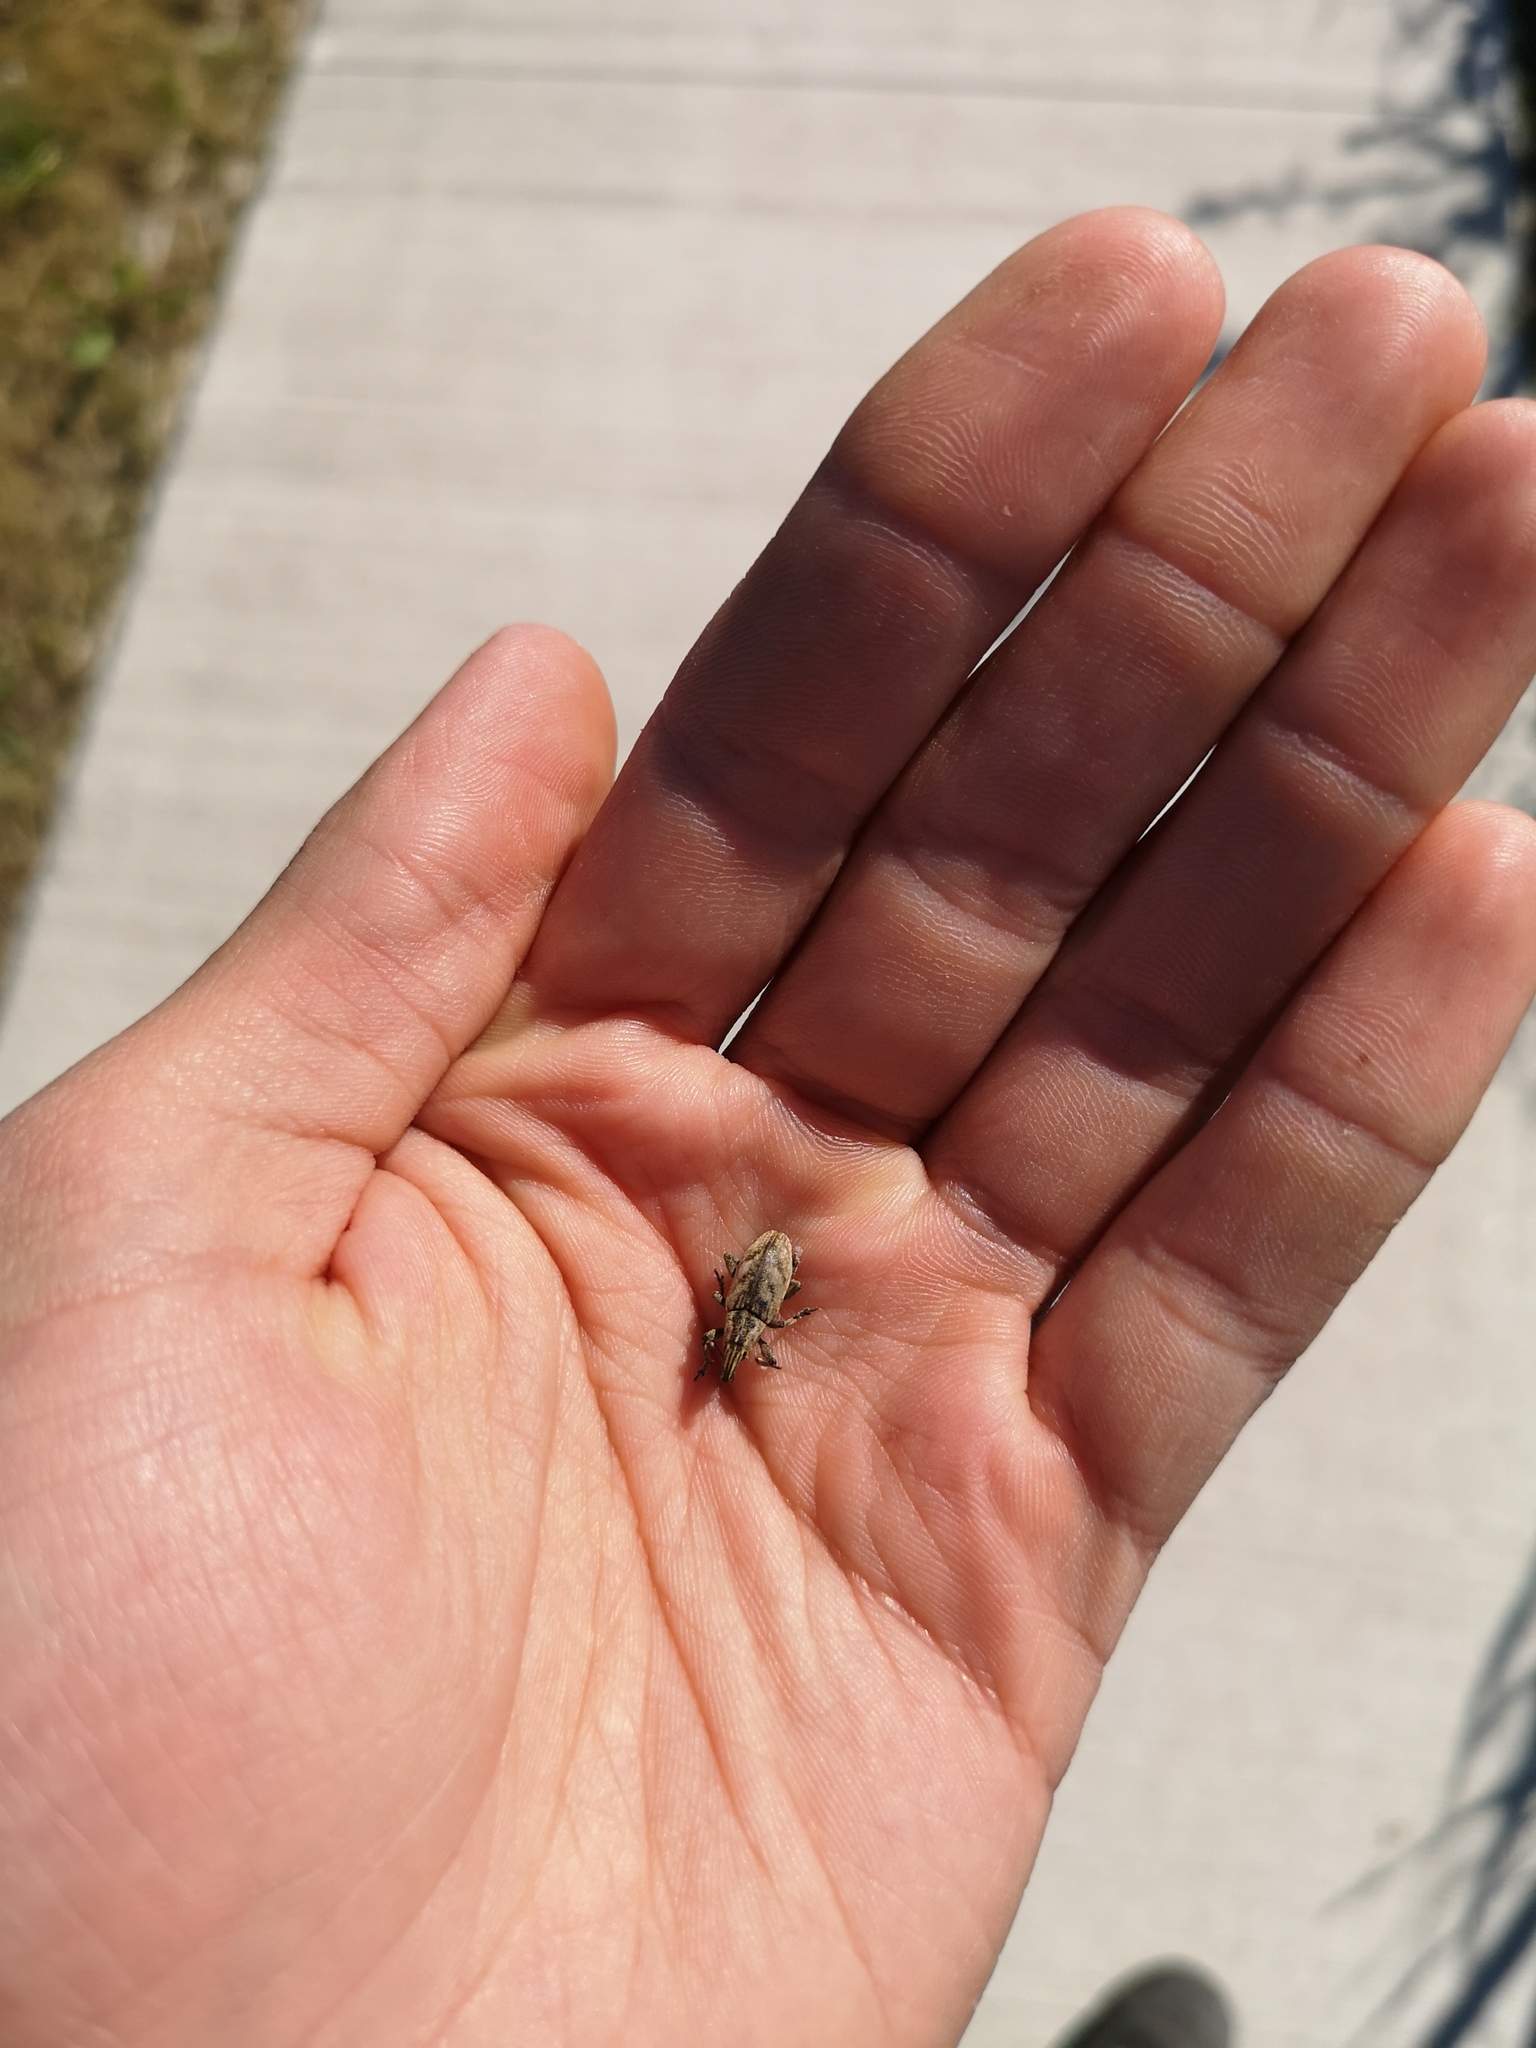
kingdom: Animalia
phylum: Arthropoda
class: Insecta
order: Coleoptera
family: Curculionidae
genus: Cleonis
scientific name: Cleonis pigra
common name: Large thistle weevil
